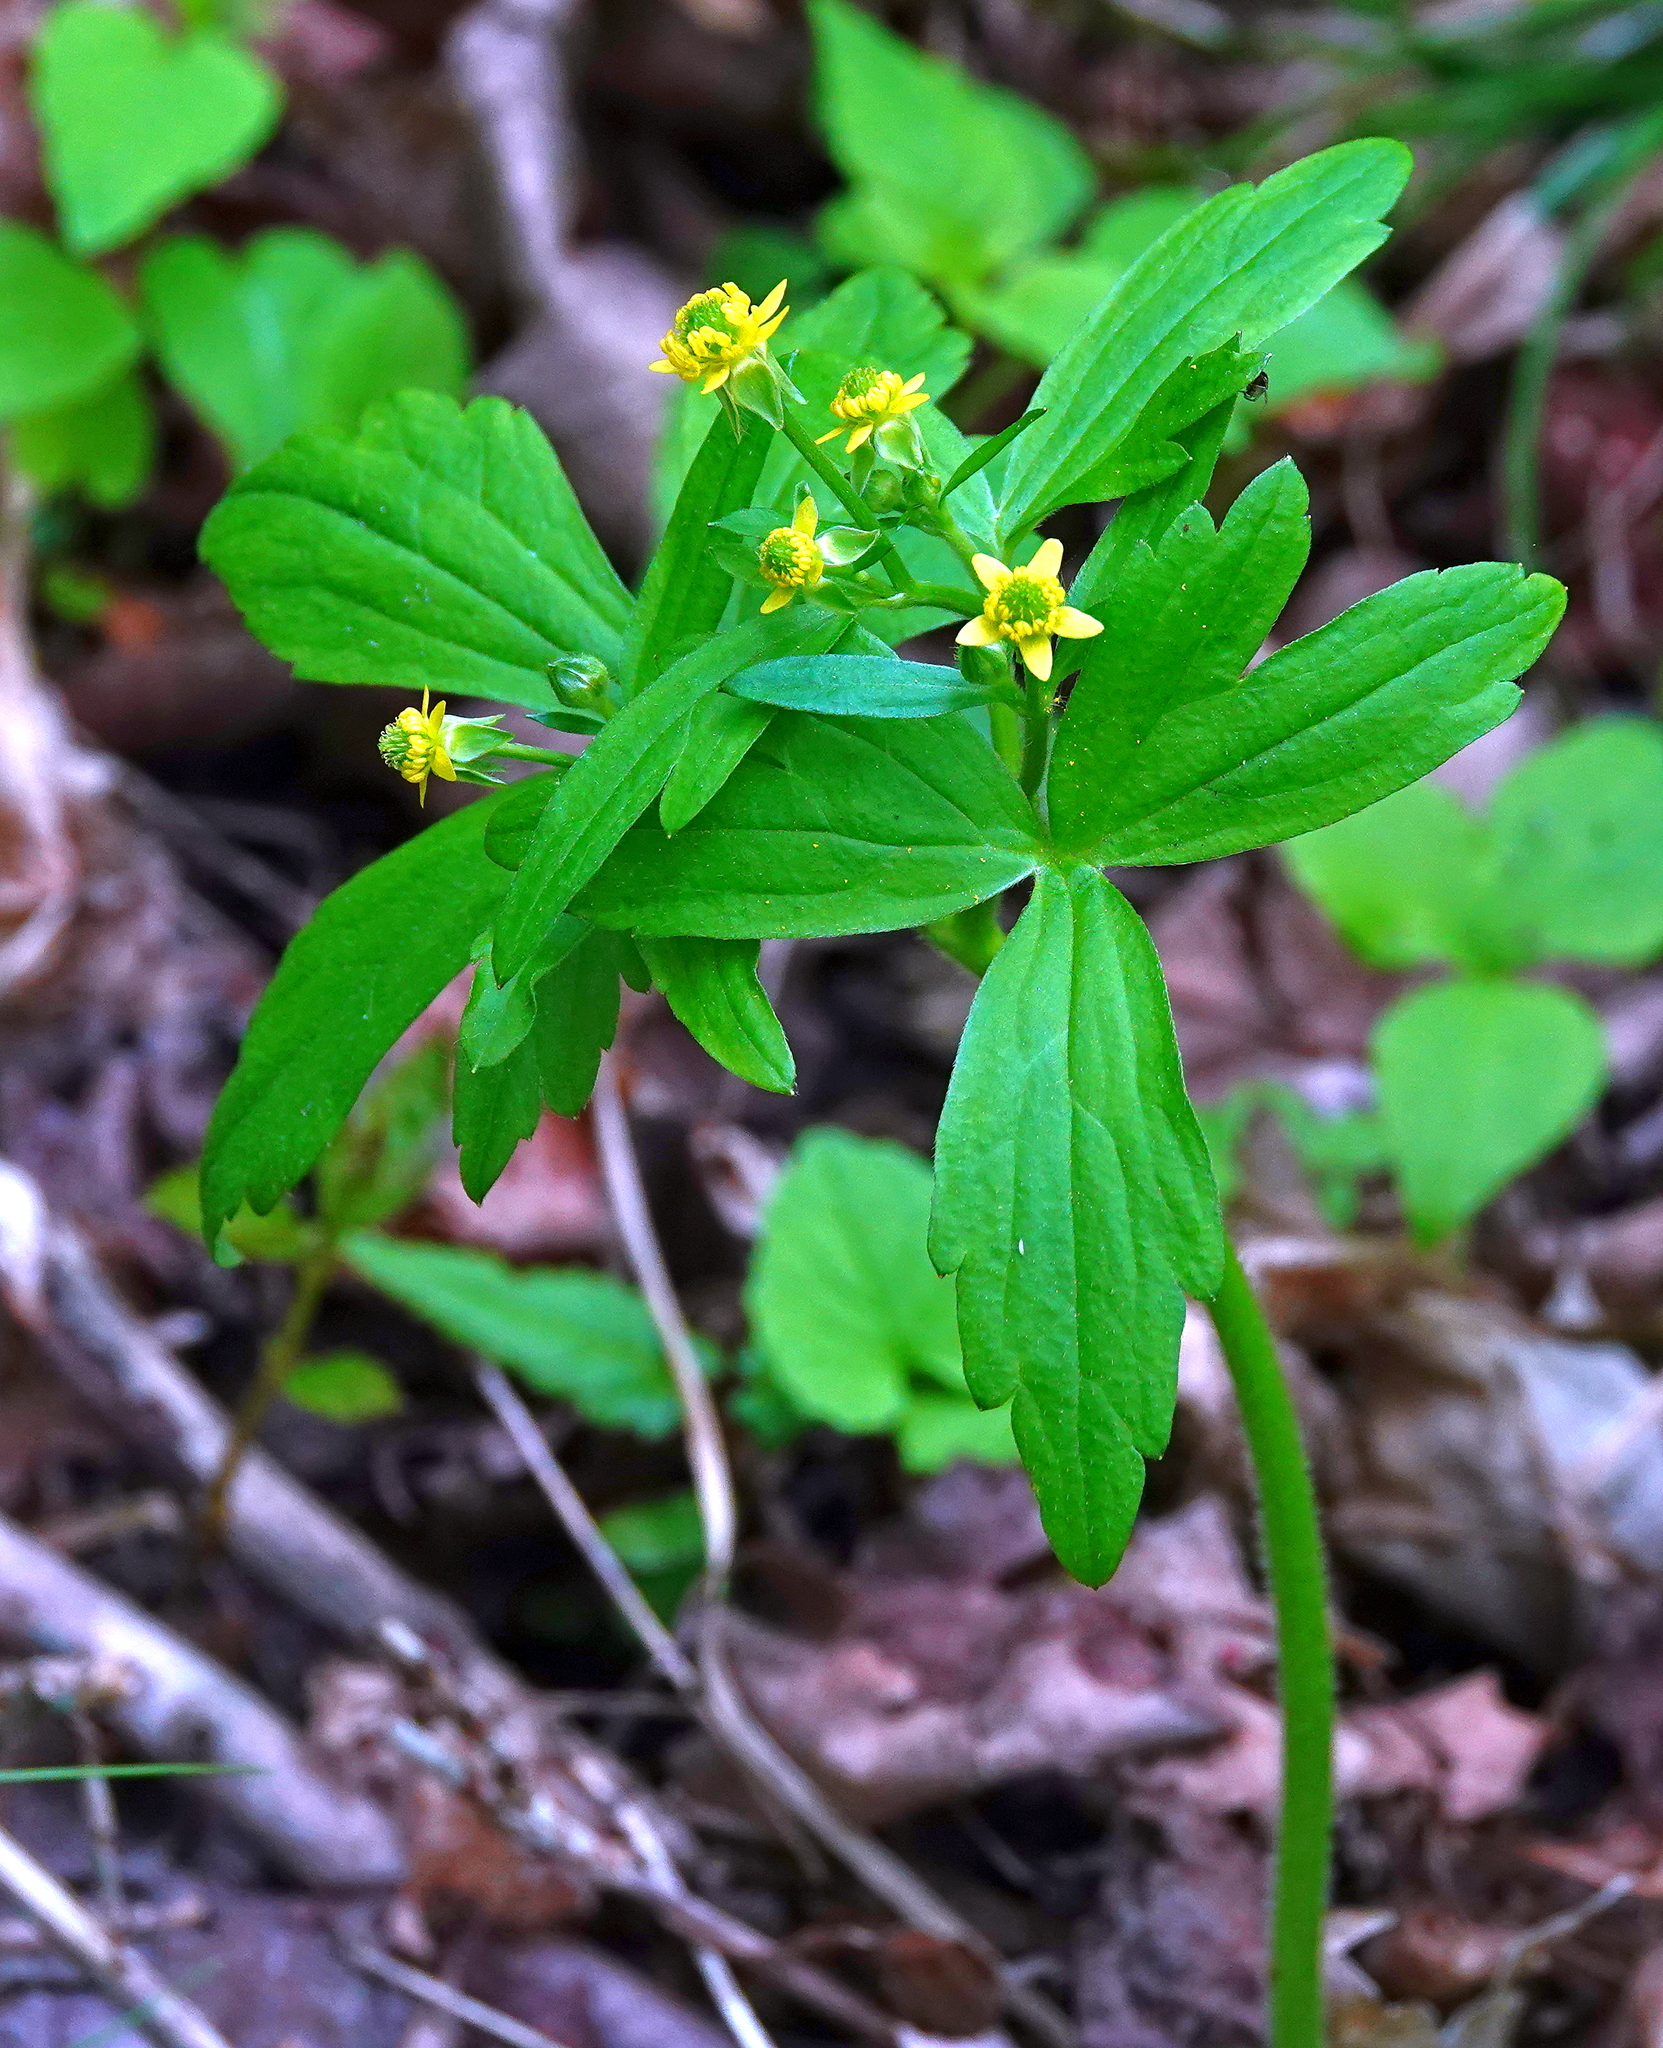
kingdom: Plantae
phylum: Tracheophyta
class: Magnoliopsida
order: Ranunculales
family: Ranunculaceae
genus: Ranunculus
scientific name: Ranunculus recurvatus
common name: Blisterwort
